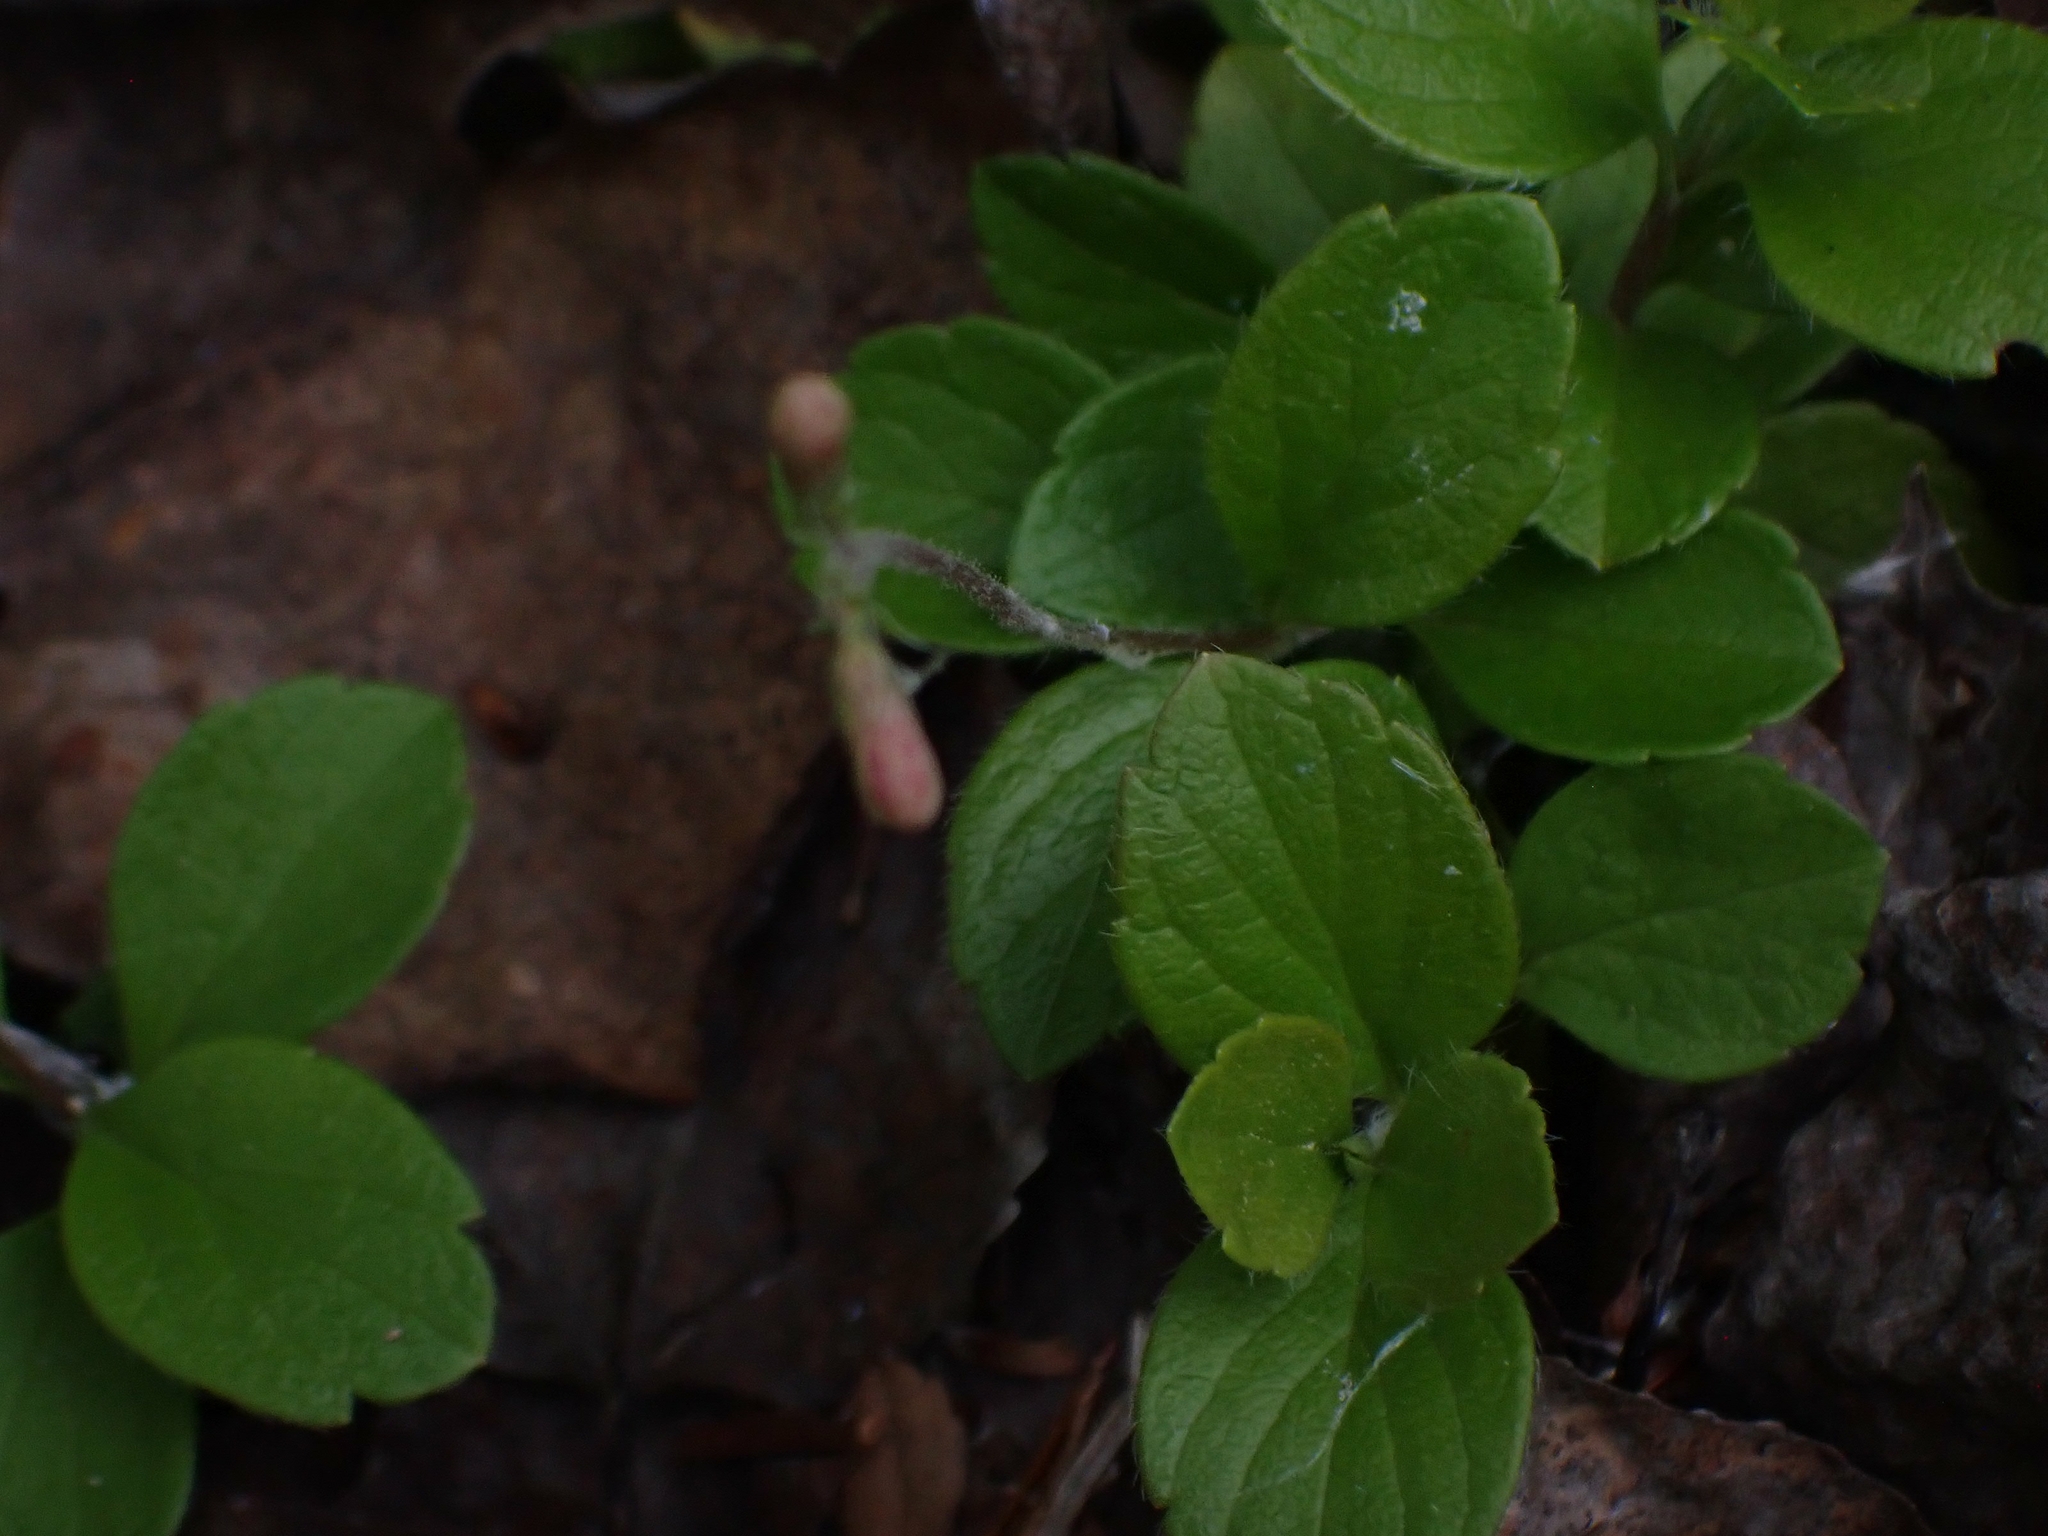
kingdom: Plantae
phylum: Tracheophyta
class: Magnoliopsida
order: Dipsacales
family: Caprifoliaceae
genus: Linnaea
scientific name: Linnaea borealis
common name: Twinflower
